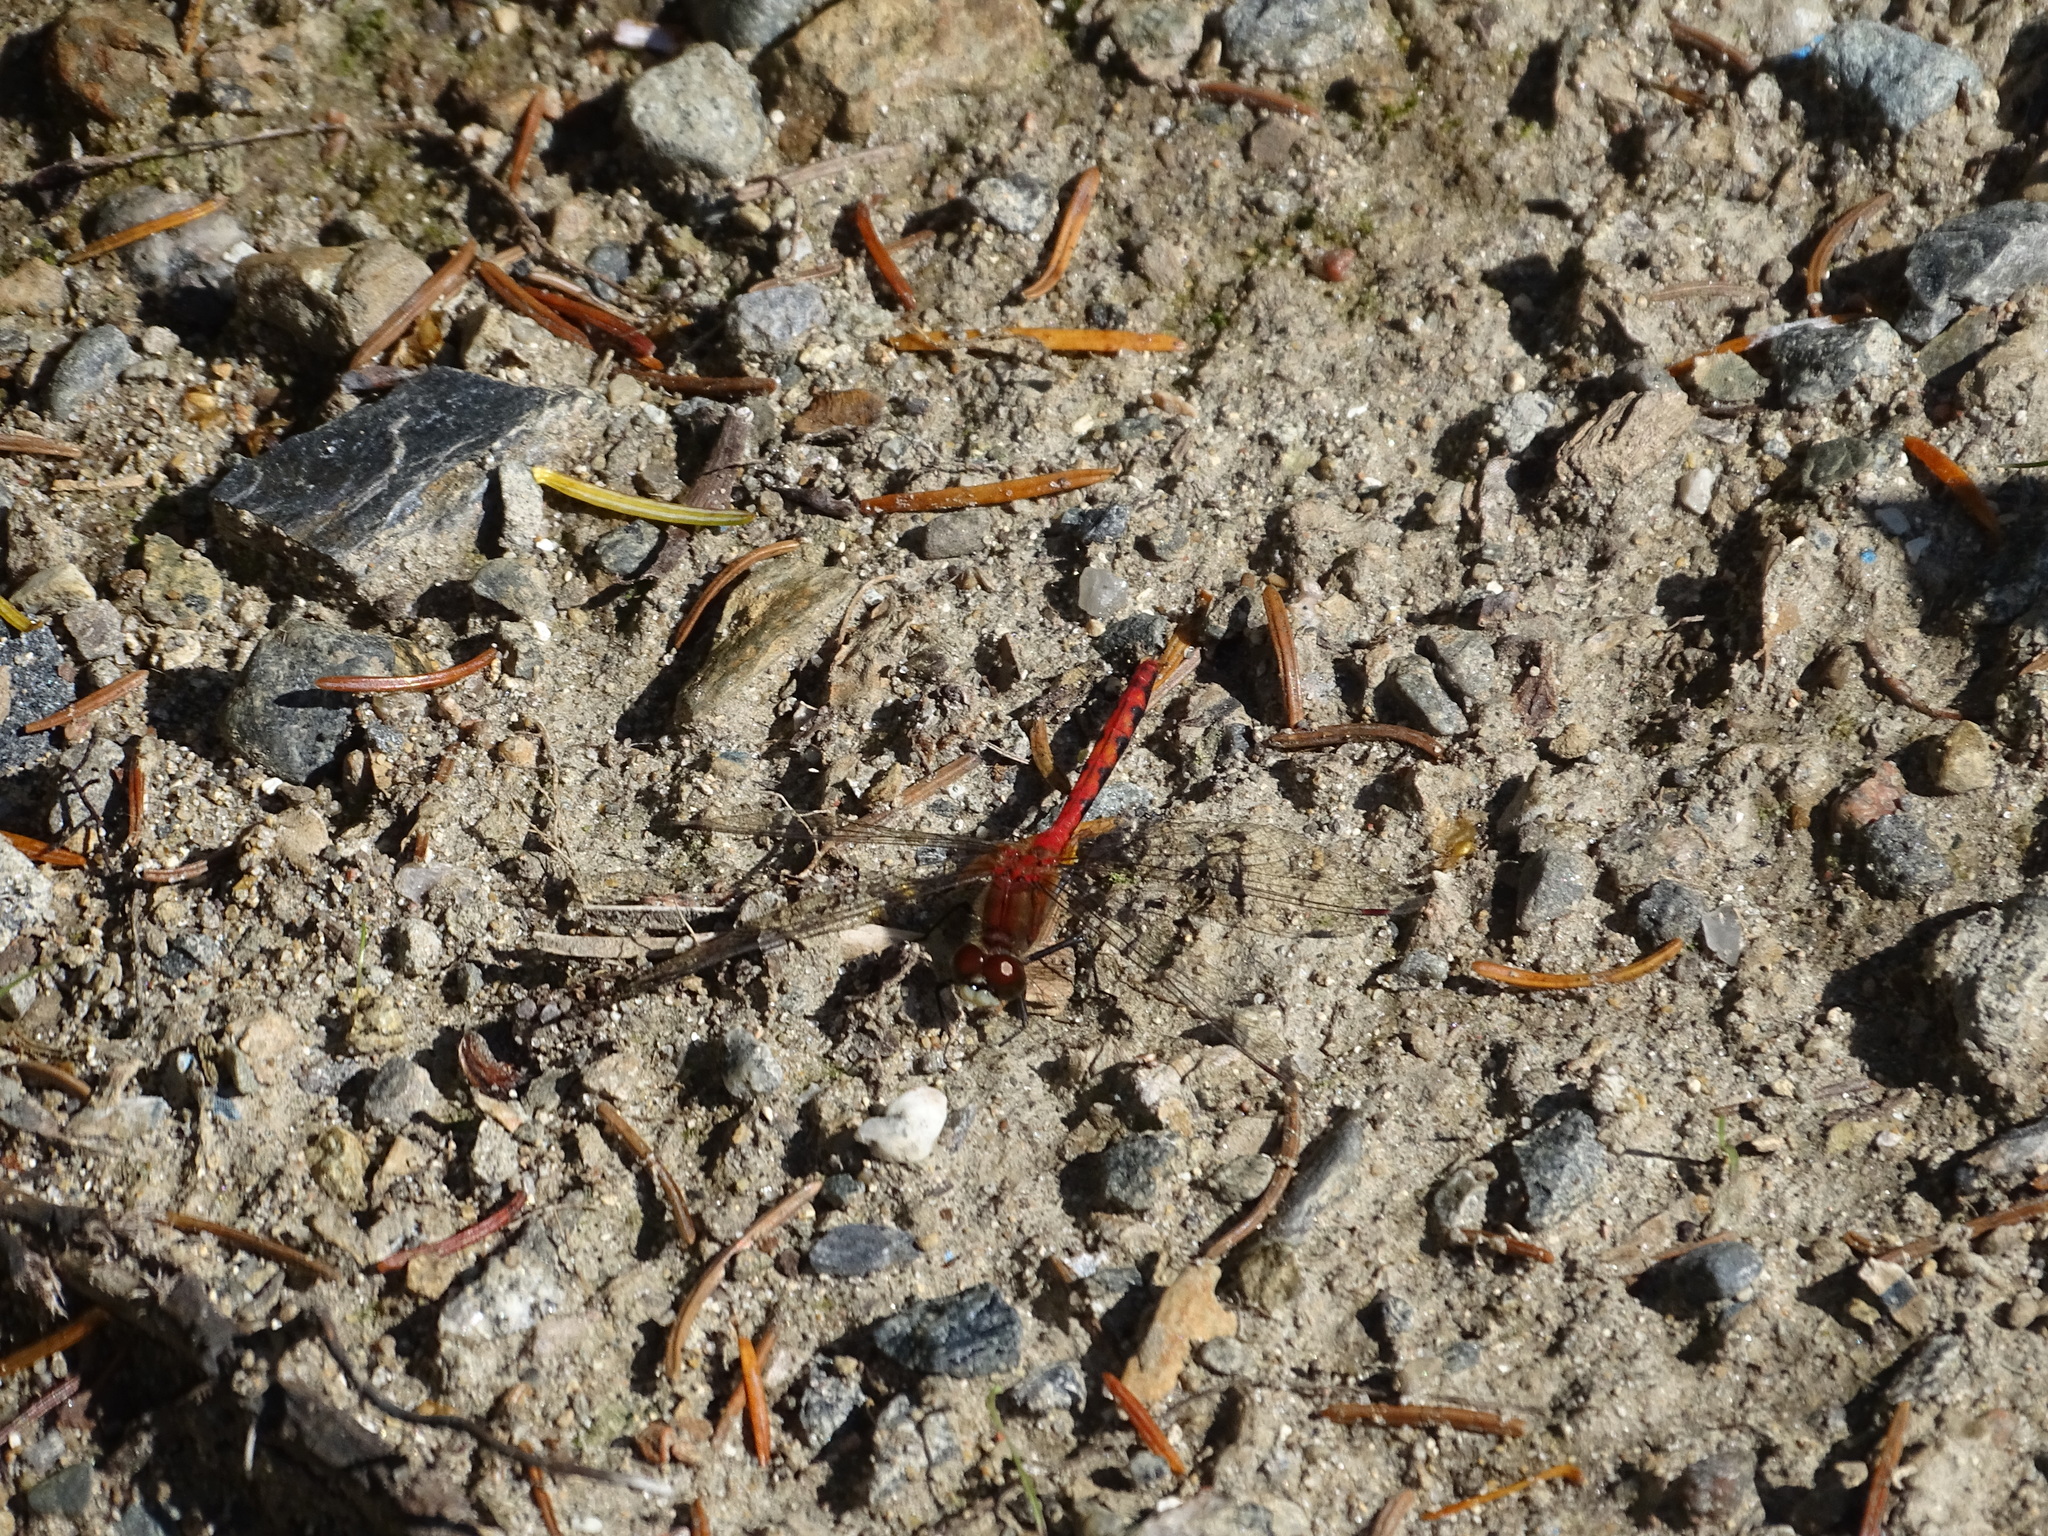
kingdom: Animalia
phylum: Arthropoda
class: Insecta
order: Odonata
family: Libellulidae
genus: Sympetrum
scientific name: Sympetrum obtrusum
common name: White-faced meadowhawk
